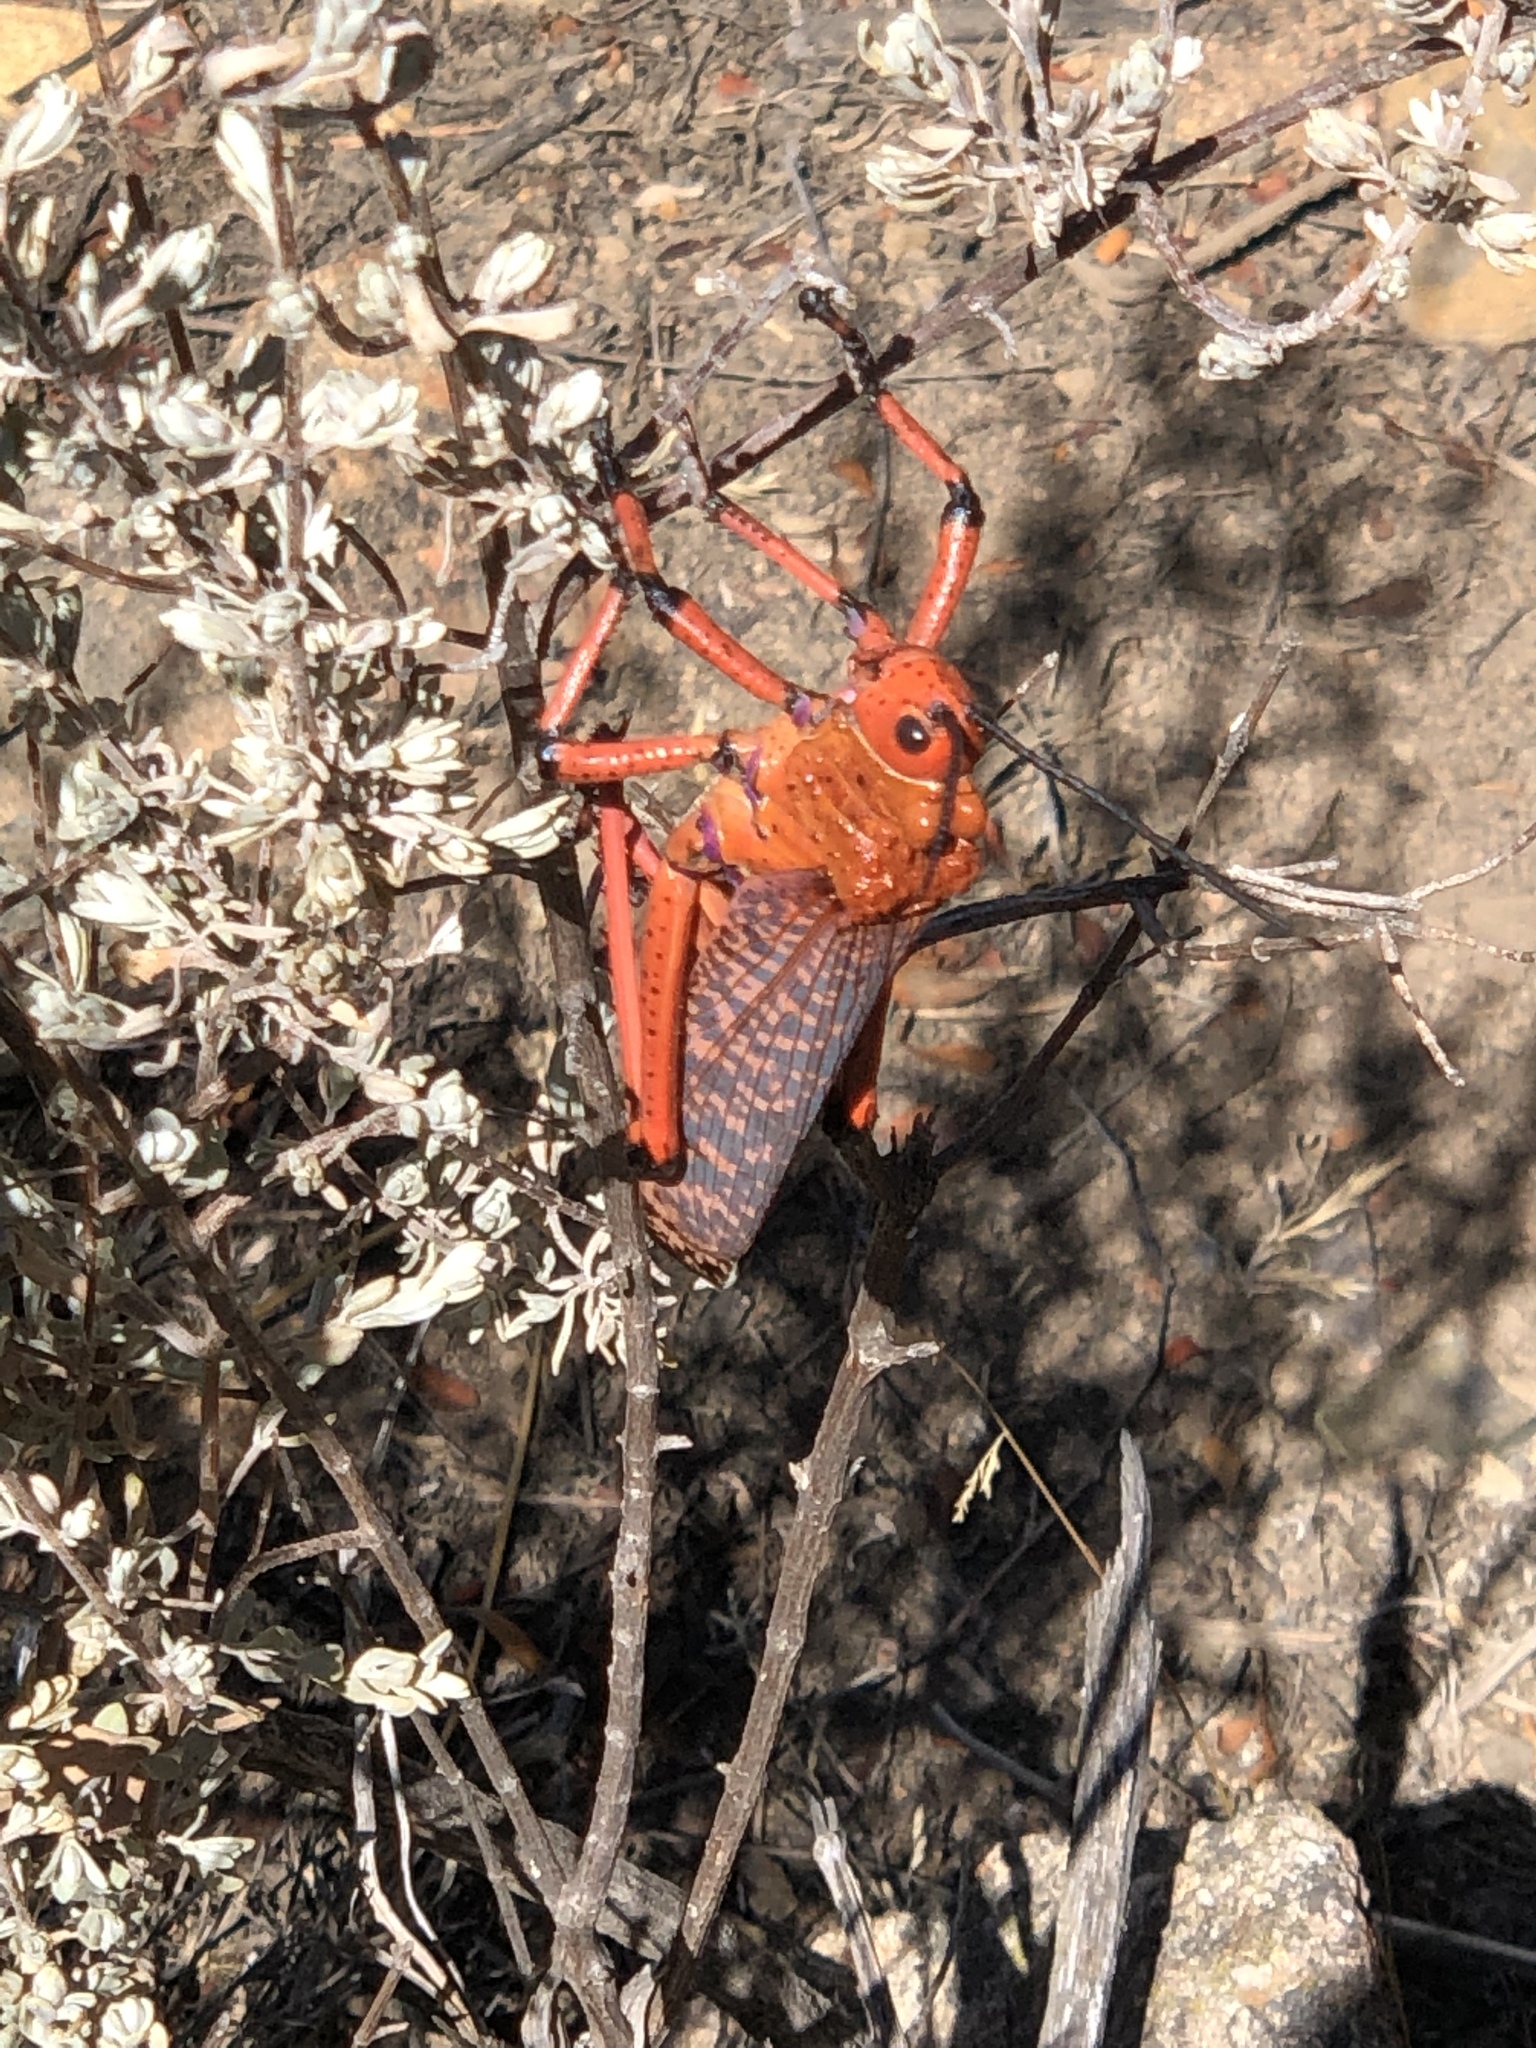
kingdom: Animalia
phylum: Arthropoda
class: Insecta
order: Orthoptera
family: Pyrgomorphidae
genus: Phymateus
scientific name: Phymateus leprosus
